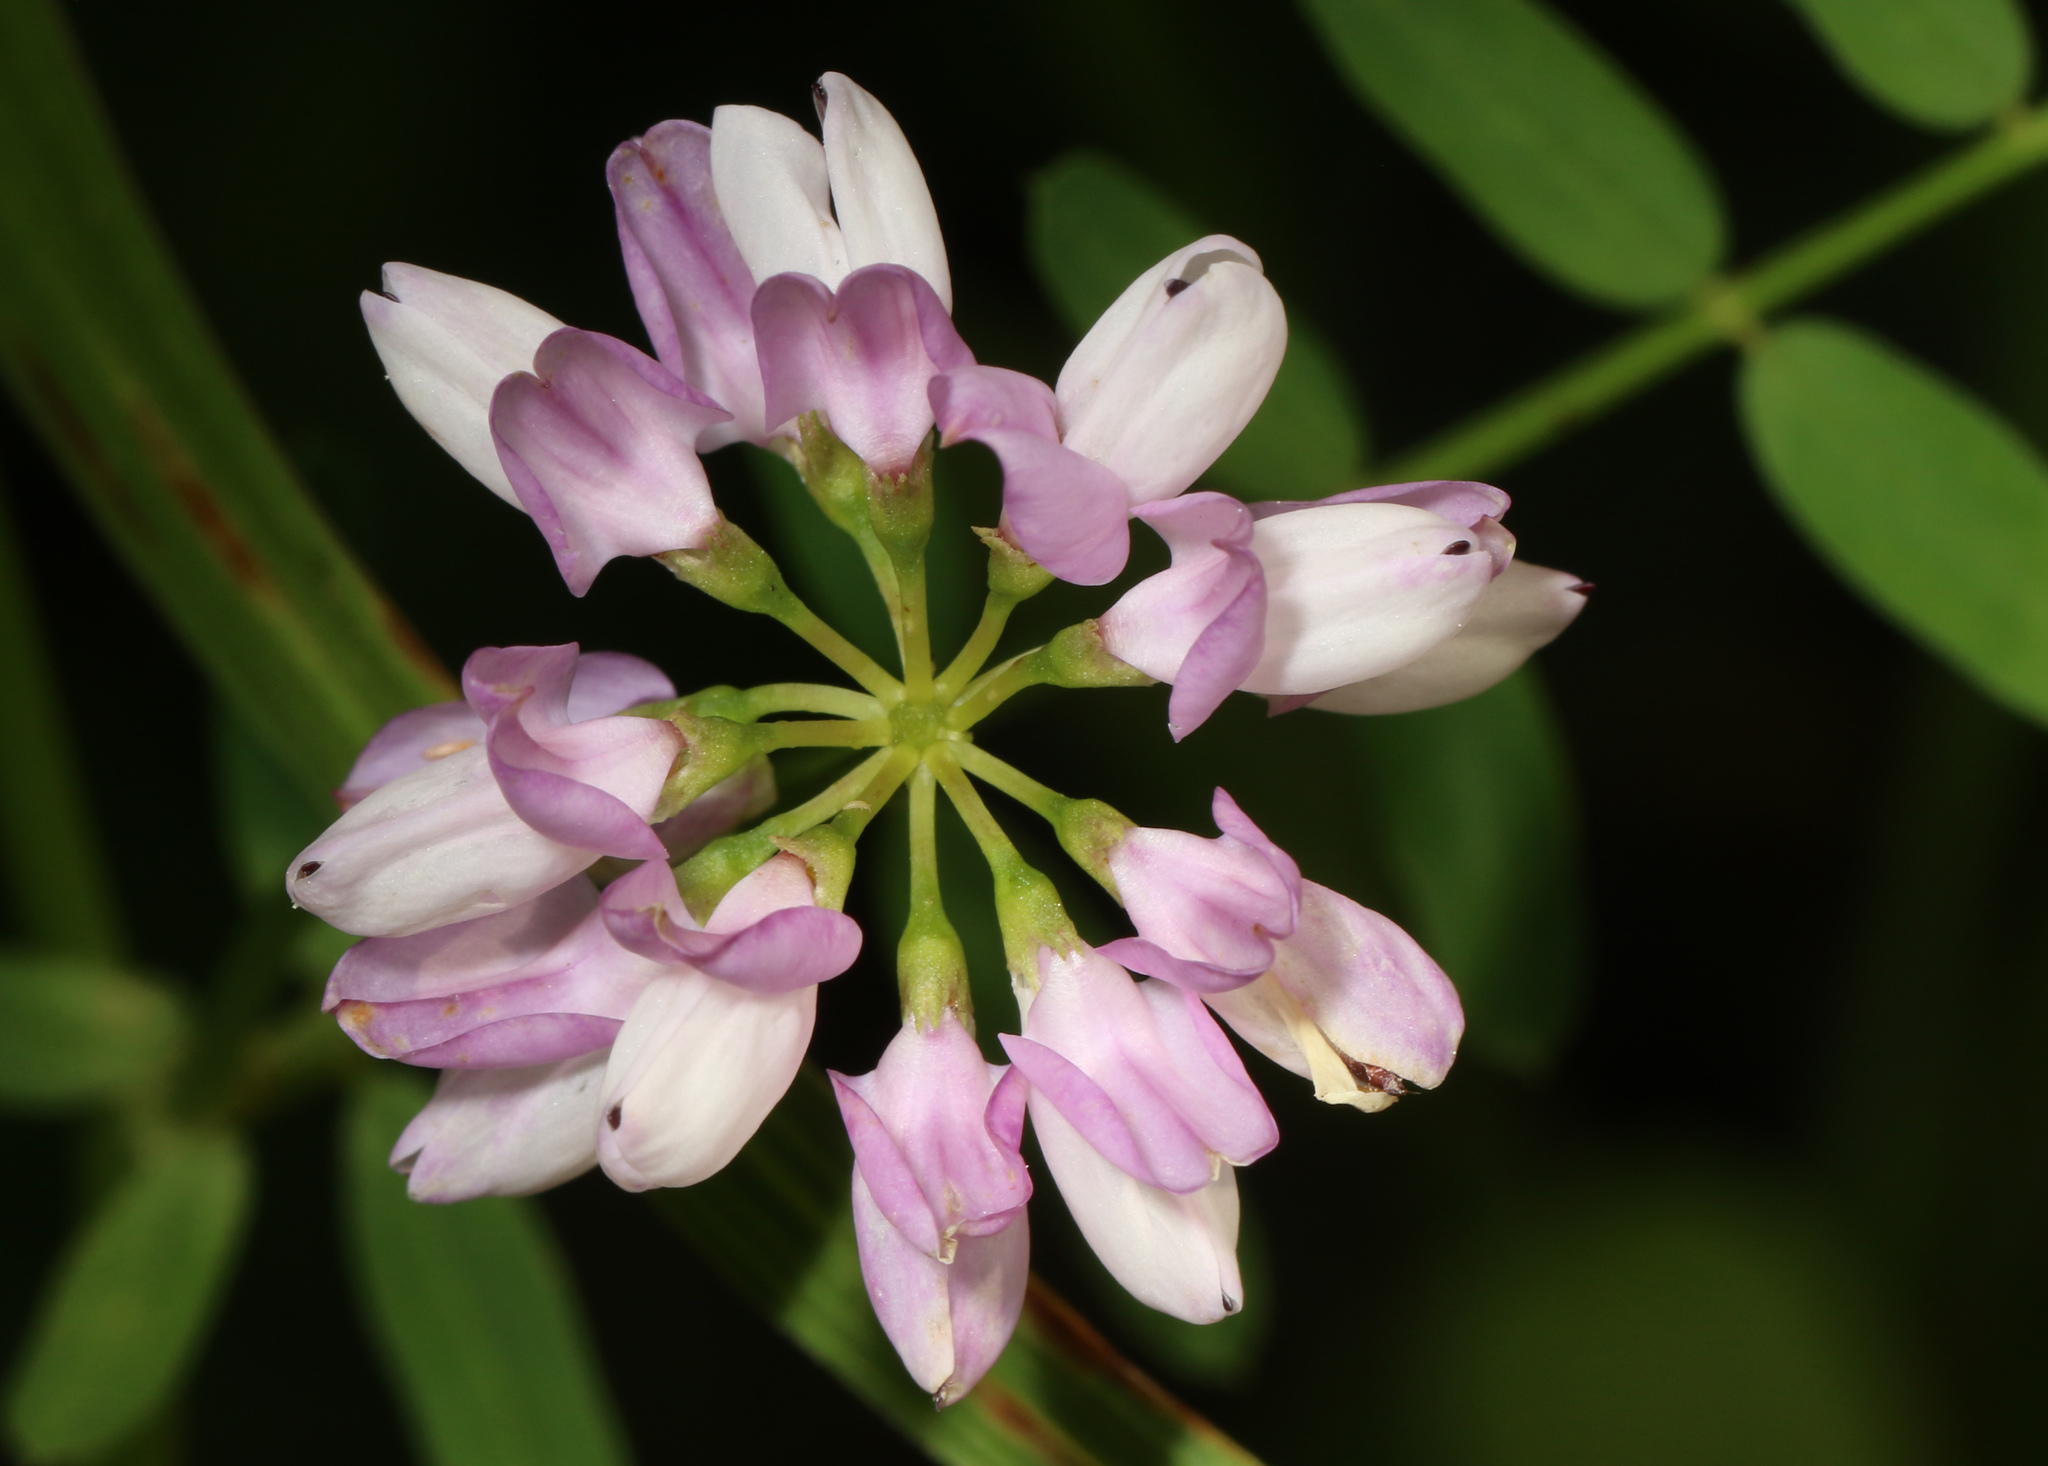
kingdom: Plantae
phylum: Tracheophyta
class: Magnoliopsida
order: Fabales
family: Fabaceae
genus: Coronilla
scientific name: Coronilla varia
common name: Crownvetch
